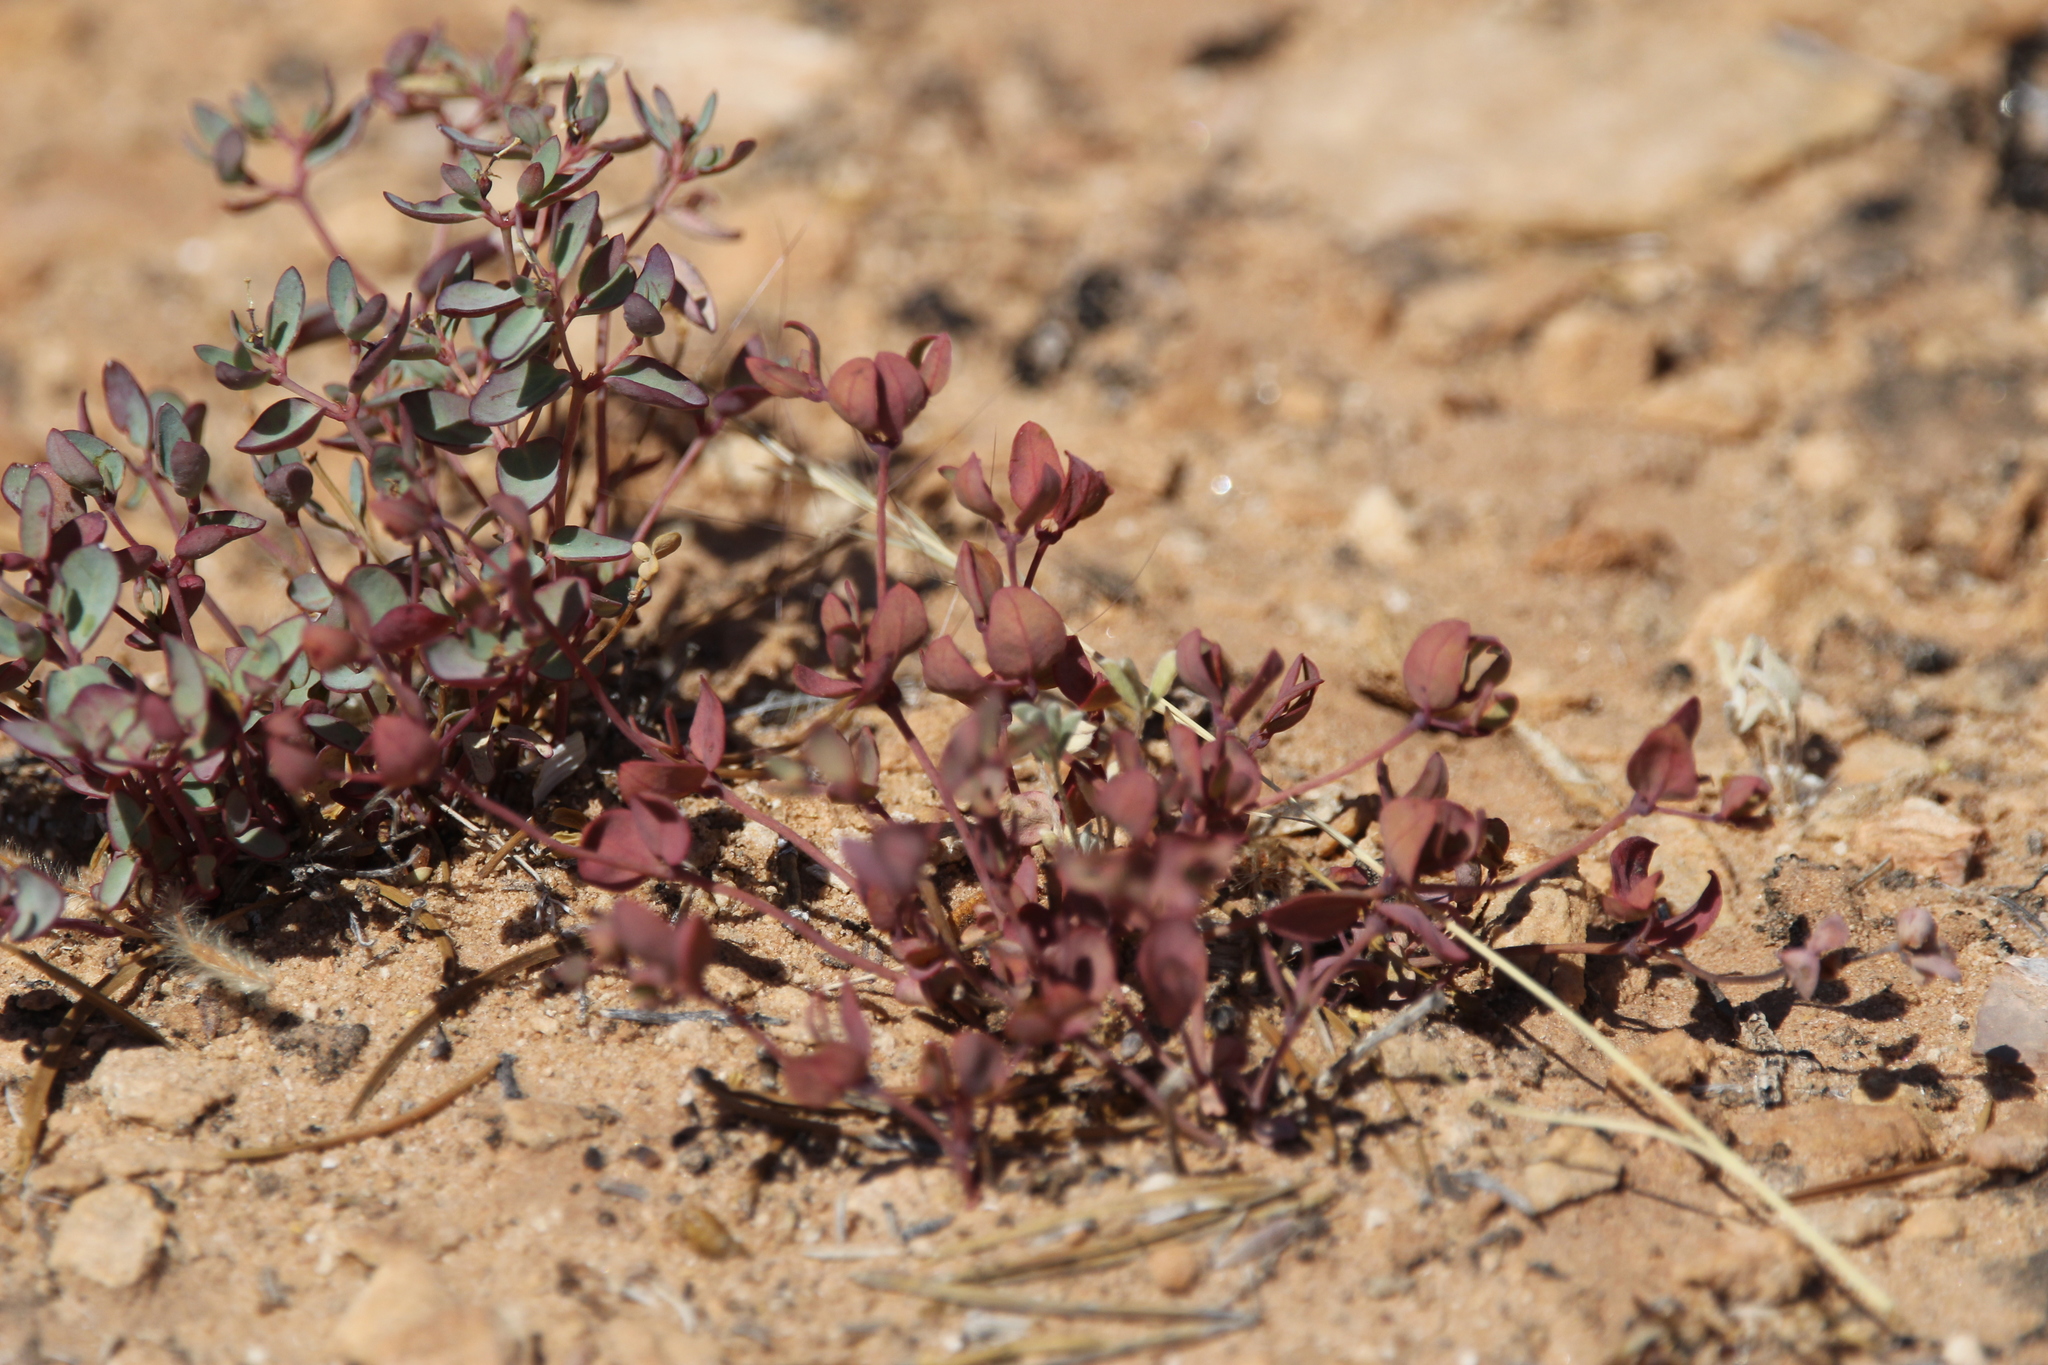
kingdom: Plantae
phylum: Tracheophyta
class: Magnoliopsida
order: Malpighiales
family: Euphorbiaceae
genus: Euphorbia
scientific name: Euphorbia fendleri
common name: Fendler's euphorbia
